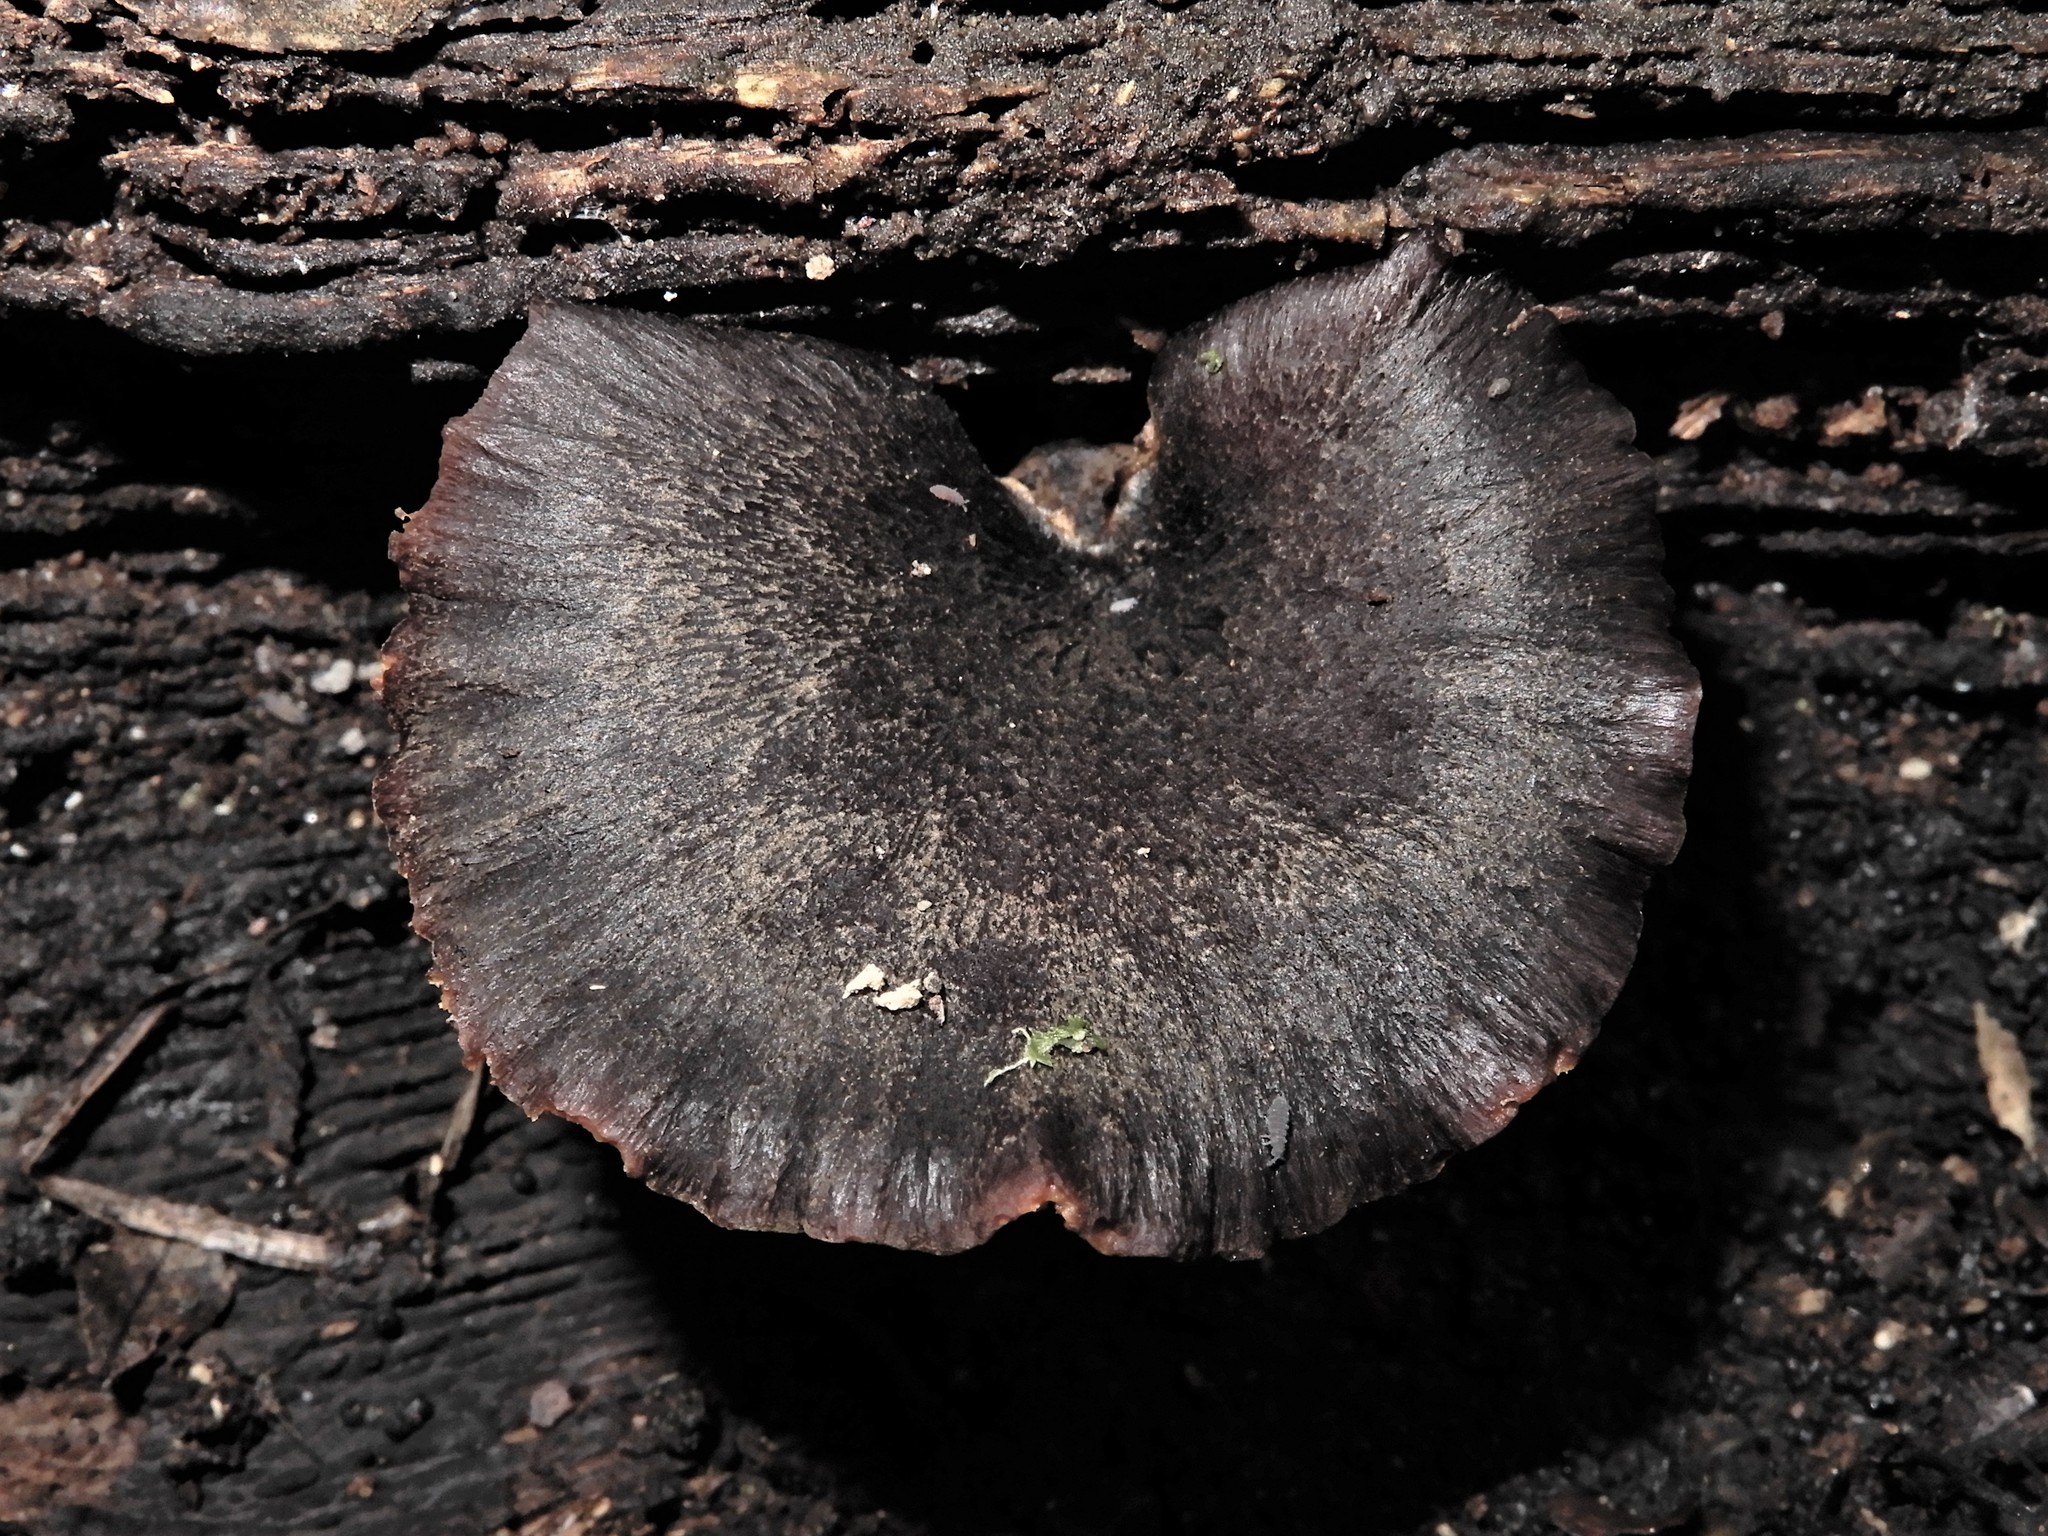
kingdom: Fungi
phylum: Basidiomycota
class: Agaricomycetes
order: Polyporales
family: Polyporaceae
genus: Picipes
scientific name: Picipes dictyopus
